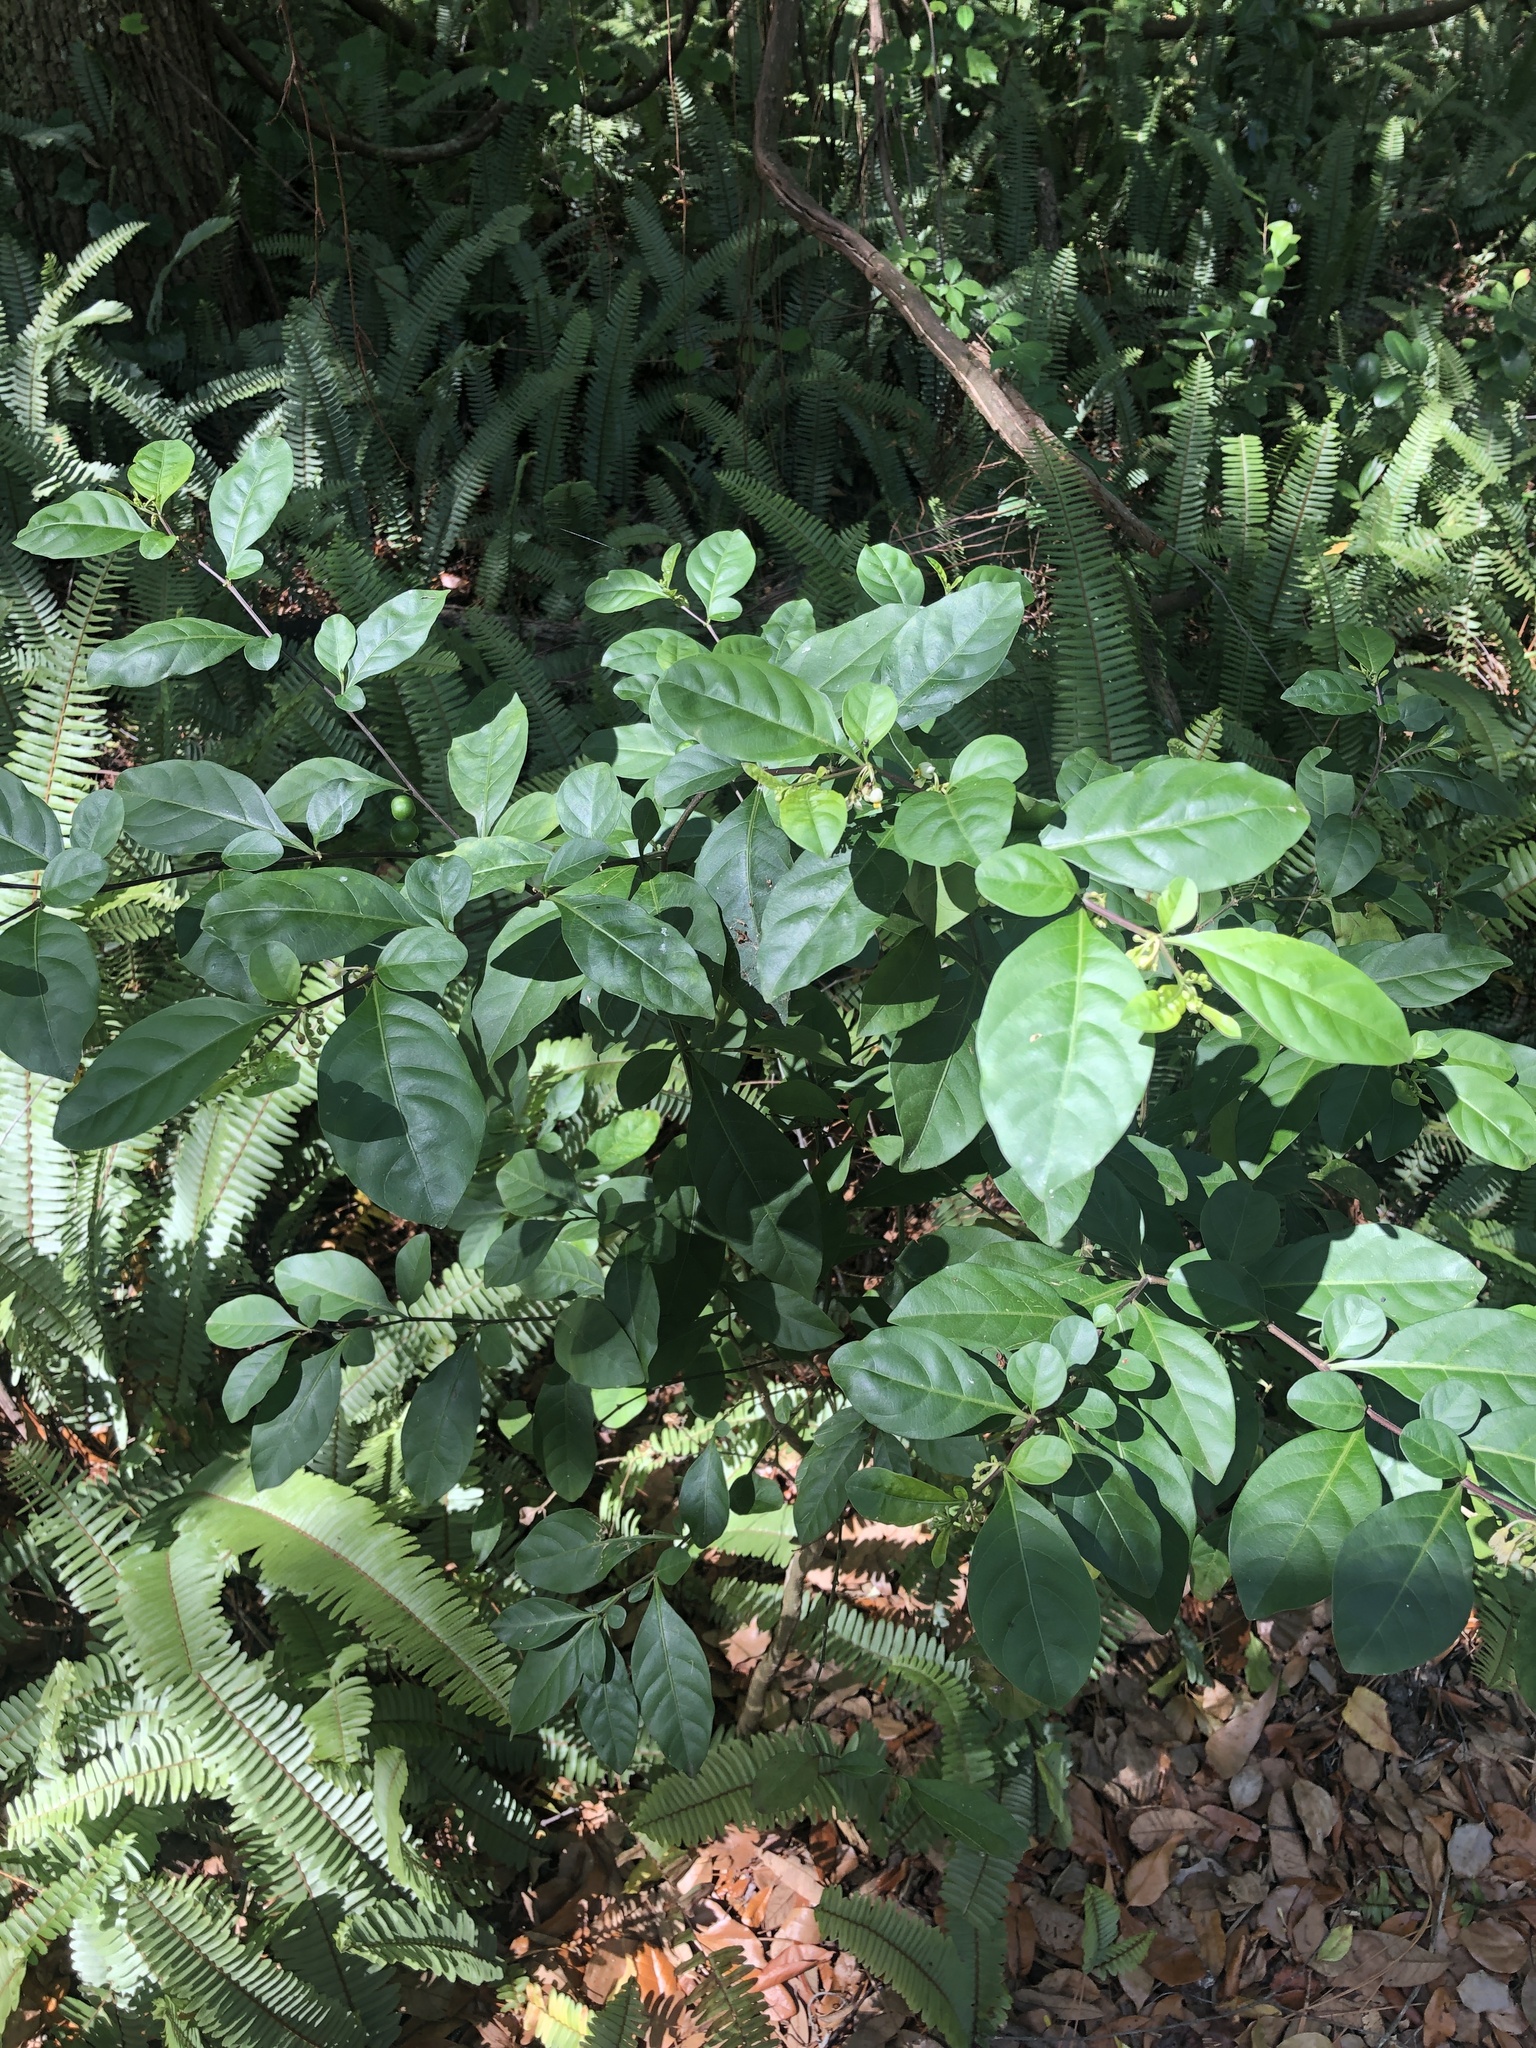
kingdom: Plantae
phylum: Tracheophyta
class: Magnoliopsida
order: Solanales
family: Solanaceae
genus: Solanum
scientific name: Solanum diphyllum
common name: Twoleaf nightshade
